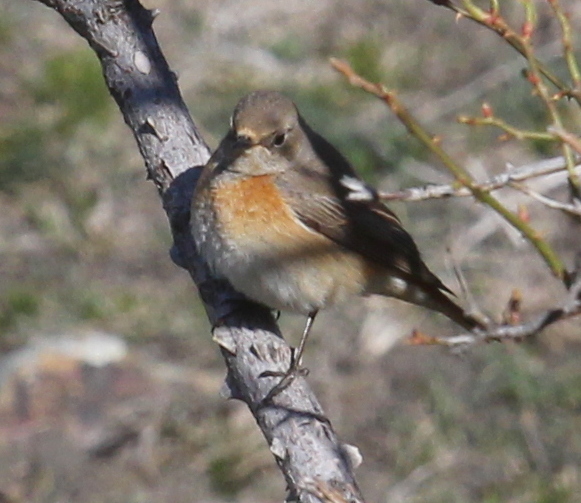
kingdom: Animalia
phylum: Chordata
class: Aves
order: Passeriformes
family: Muscicapidae
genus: Phoenicurus
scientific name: Phoenicurus phoenicurus
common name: Common redstart
